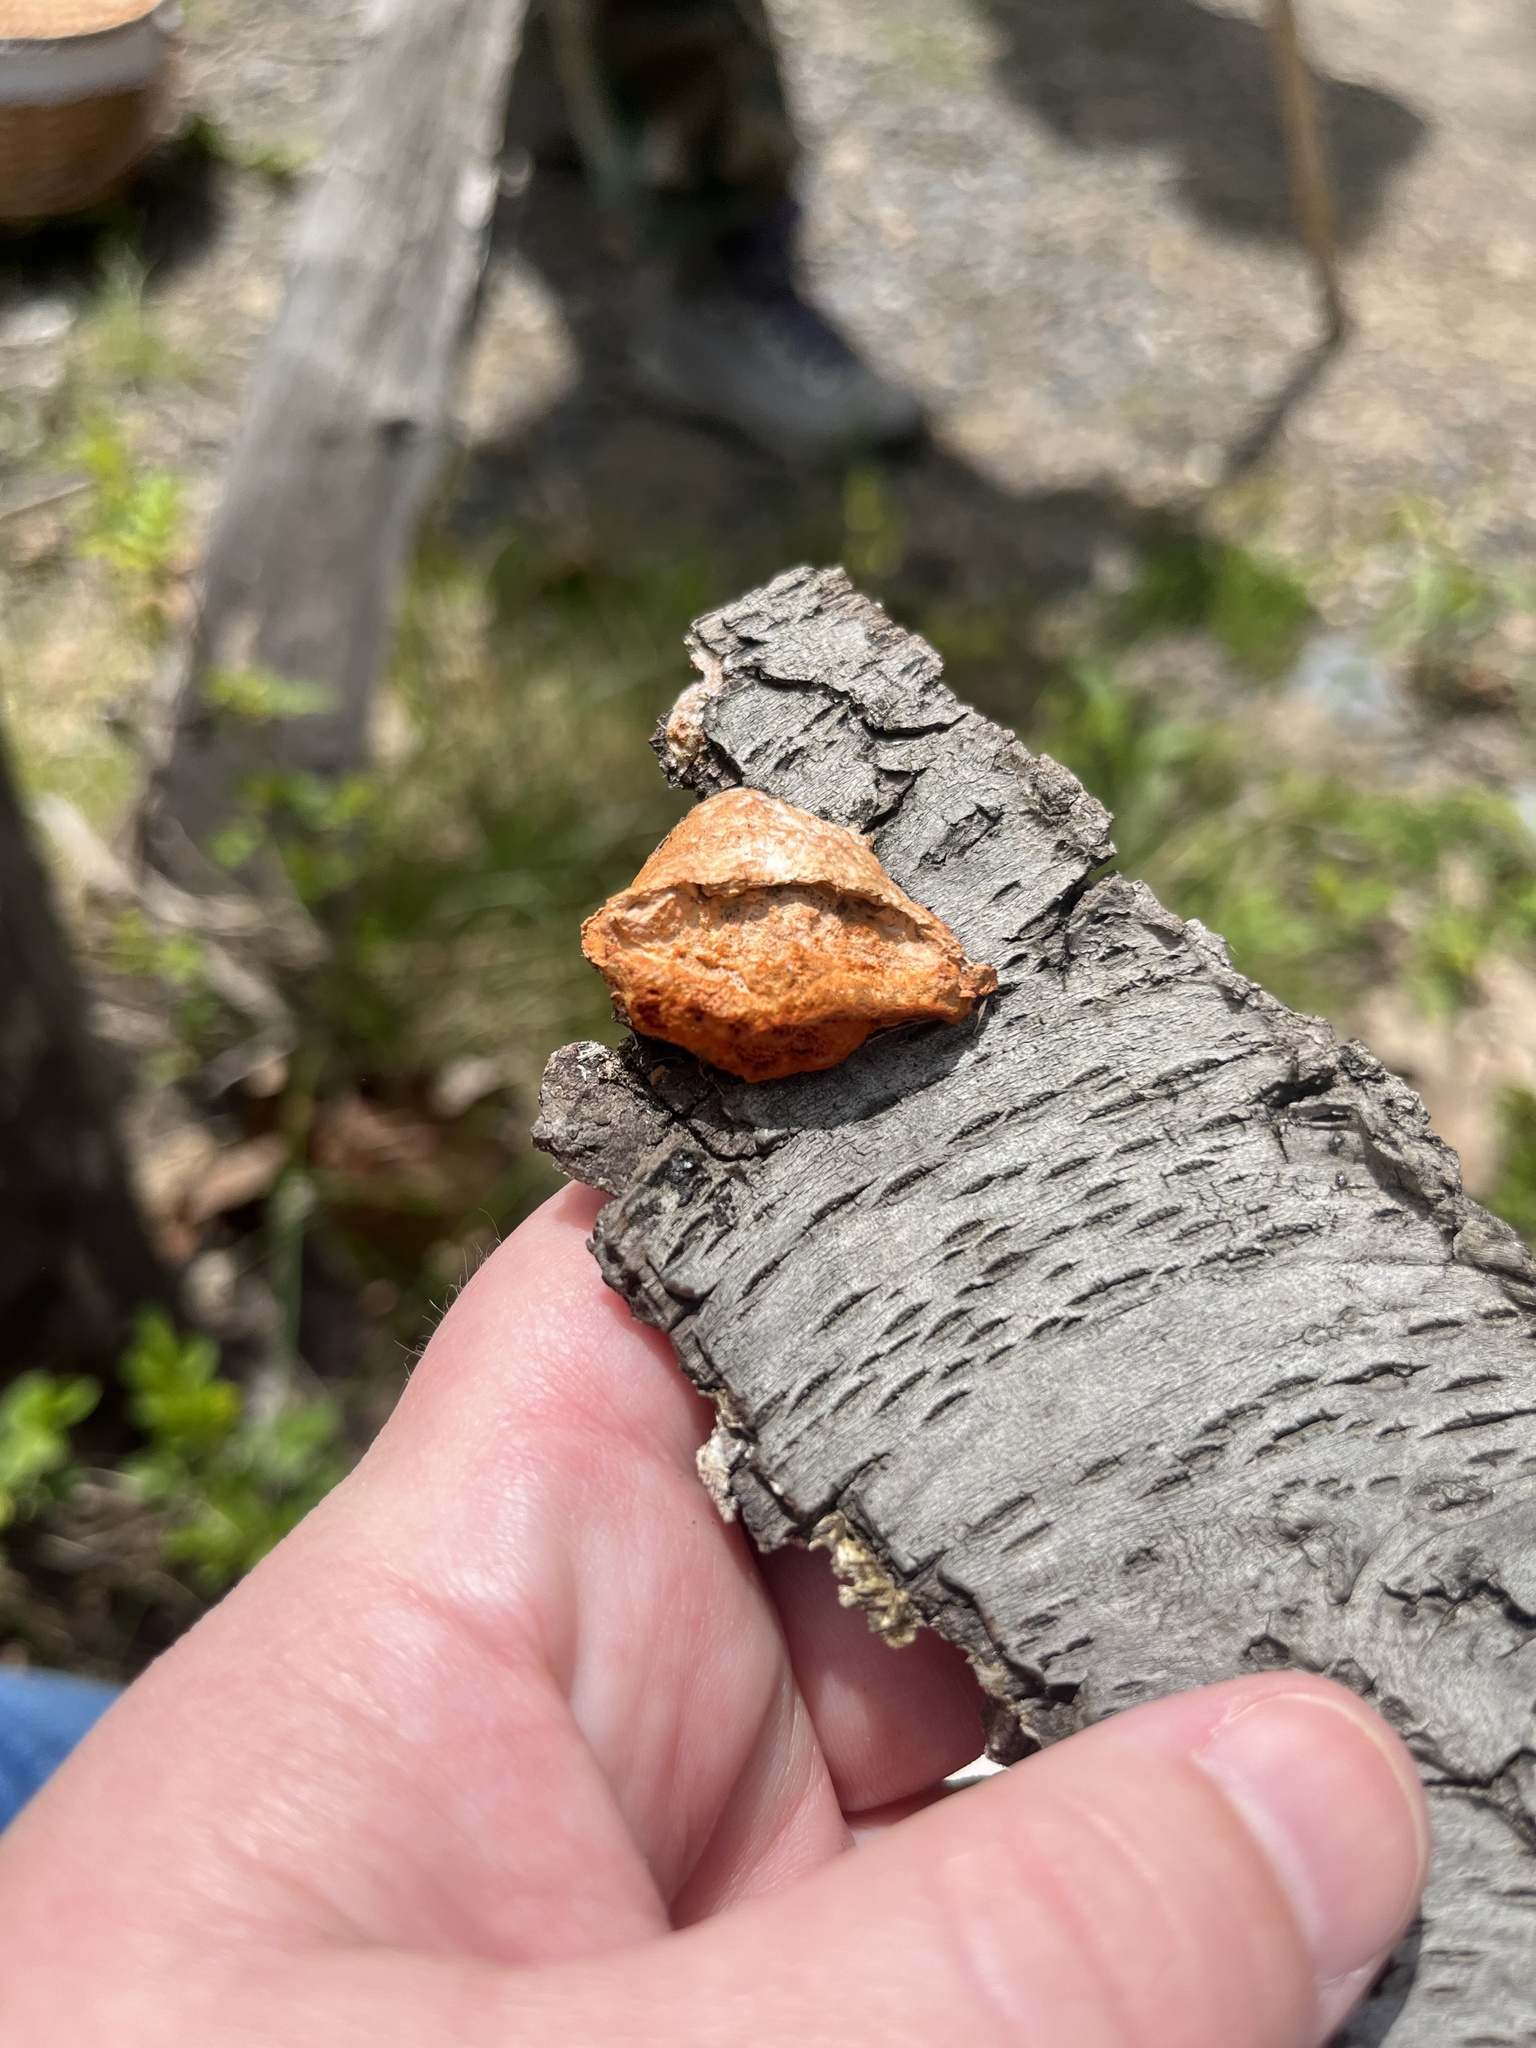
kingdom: Fungi
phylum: Basidiomycota
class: Agaricomycetes
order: Polyporales
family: Polyporaceae
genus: Trametes
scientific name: Trametes cinnabarina
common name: Northern cinnabar polypore
